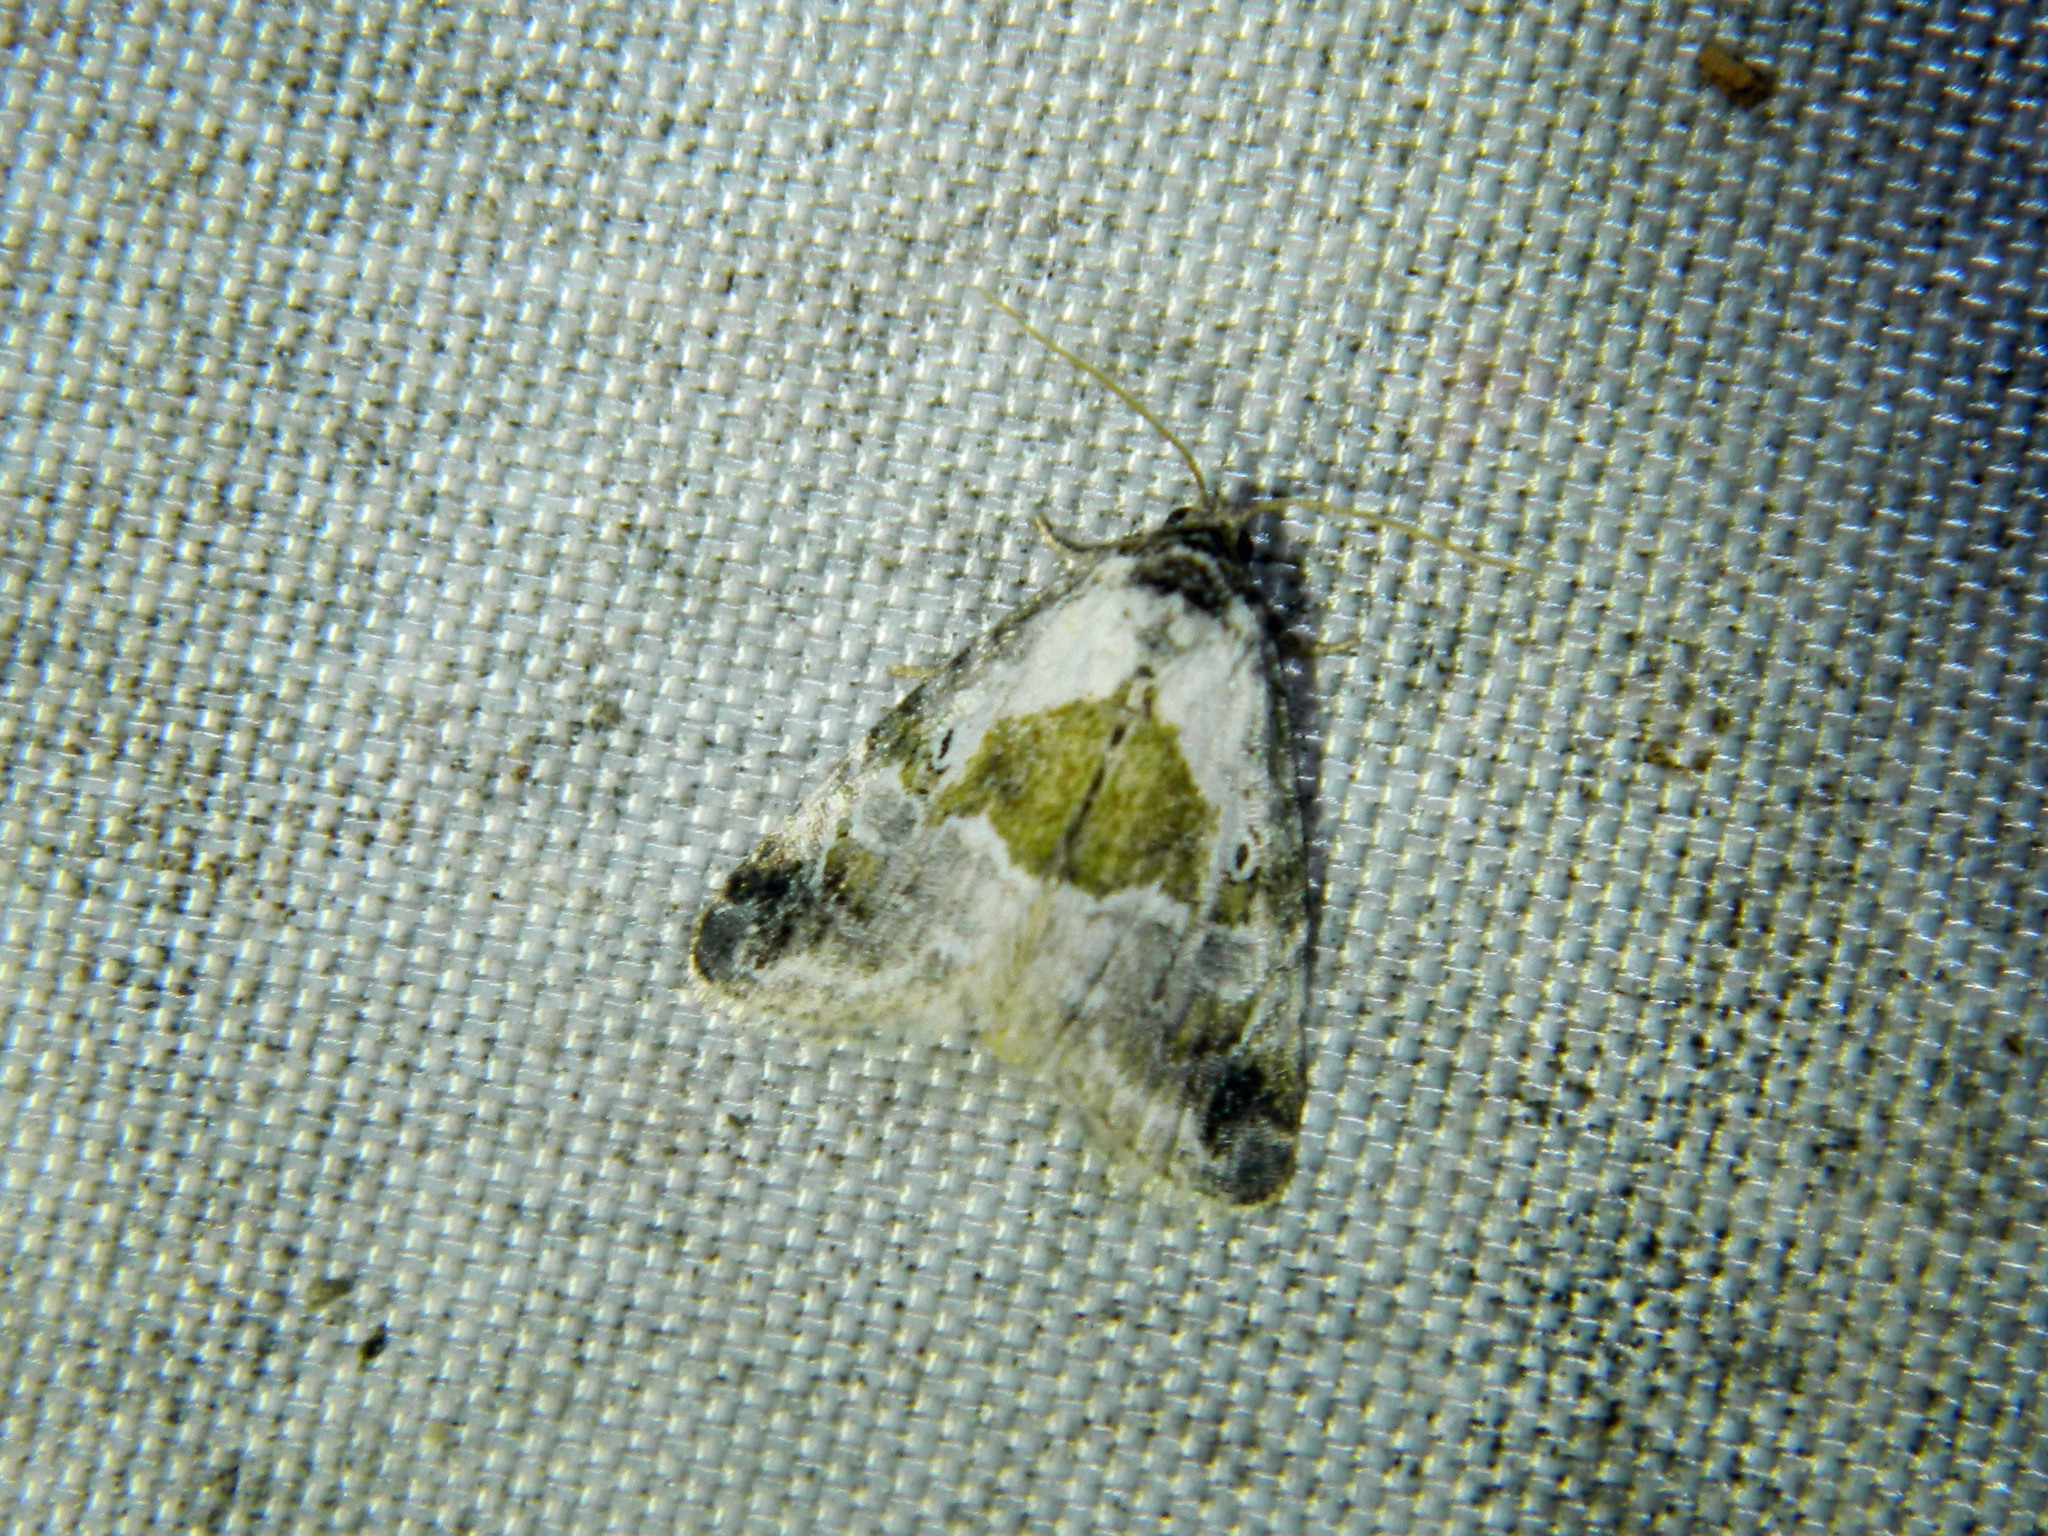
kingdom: Animalia
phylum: Arthropoda
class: Insecta
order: Lepidoptera
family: Noctuidae
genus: Maliattha
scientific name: Maliattha synochitis
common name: Black-dotted glyph
